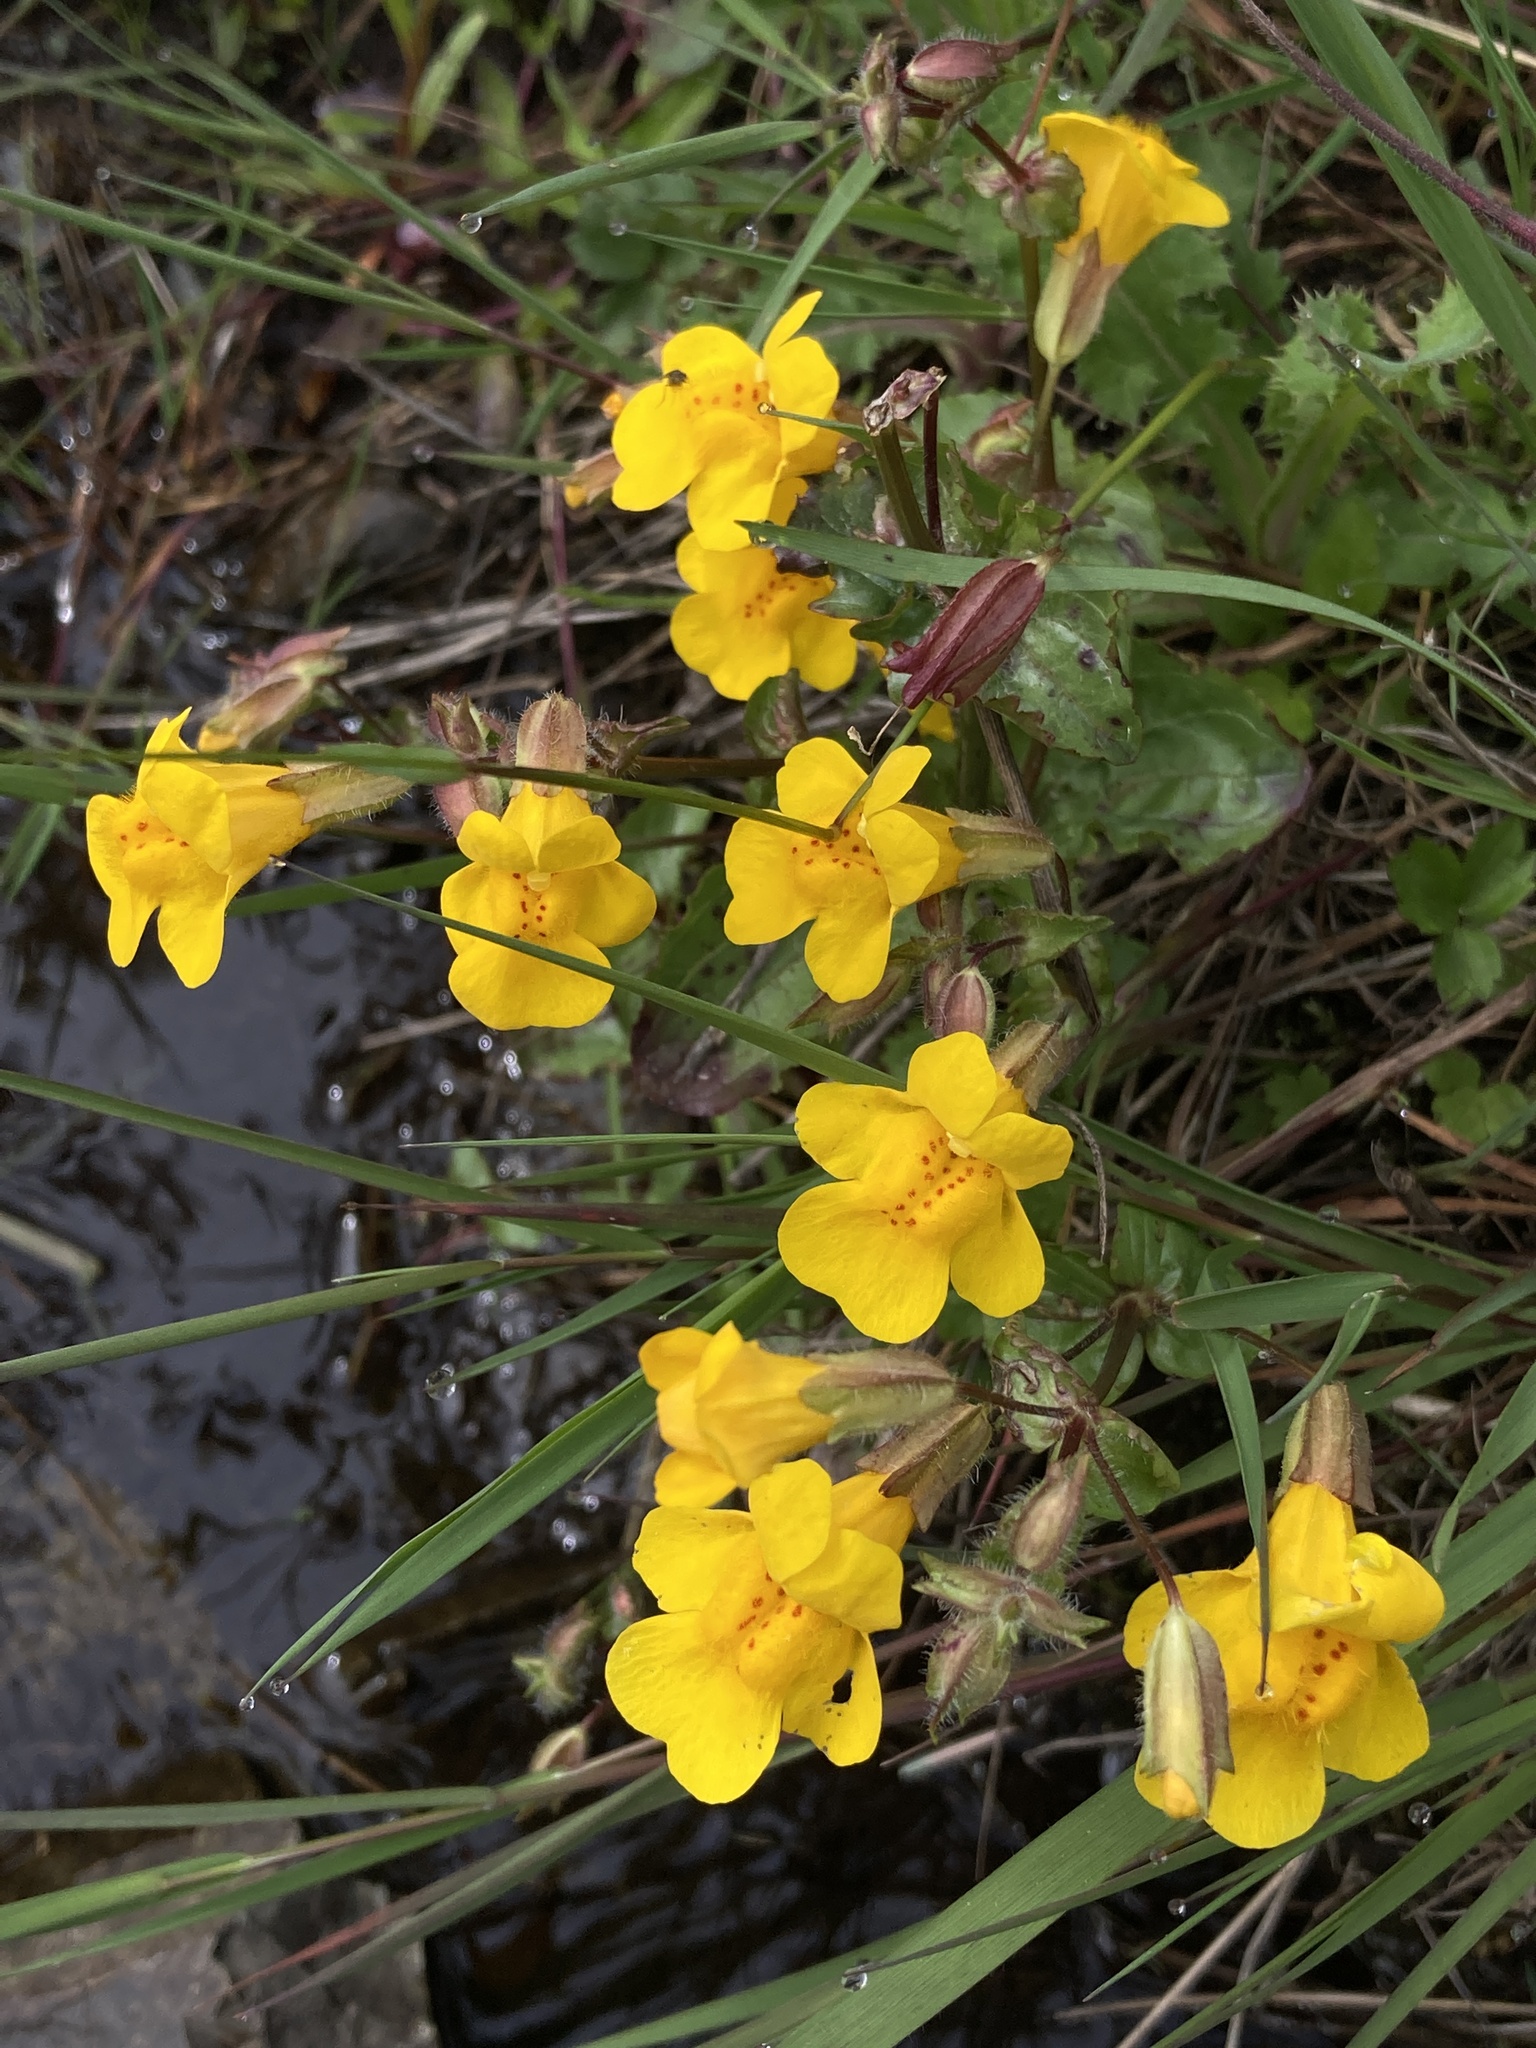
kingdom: Plantae
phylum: Tracheophyta
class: Magnoliopsida
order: Lamiales
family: Phrymaceae
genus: Erythranthe
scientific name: Erythranthe guttata
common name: Monkeyflower
